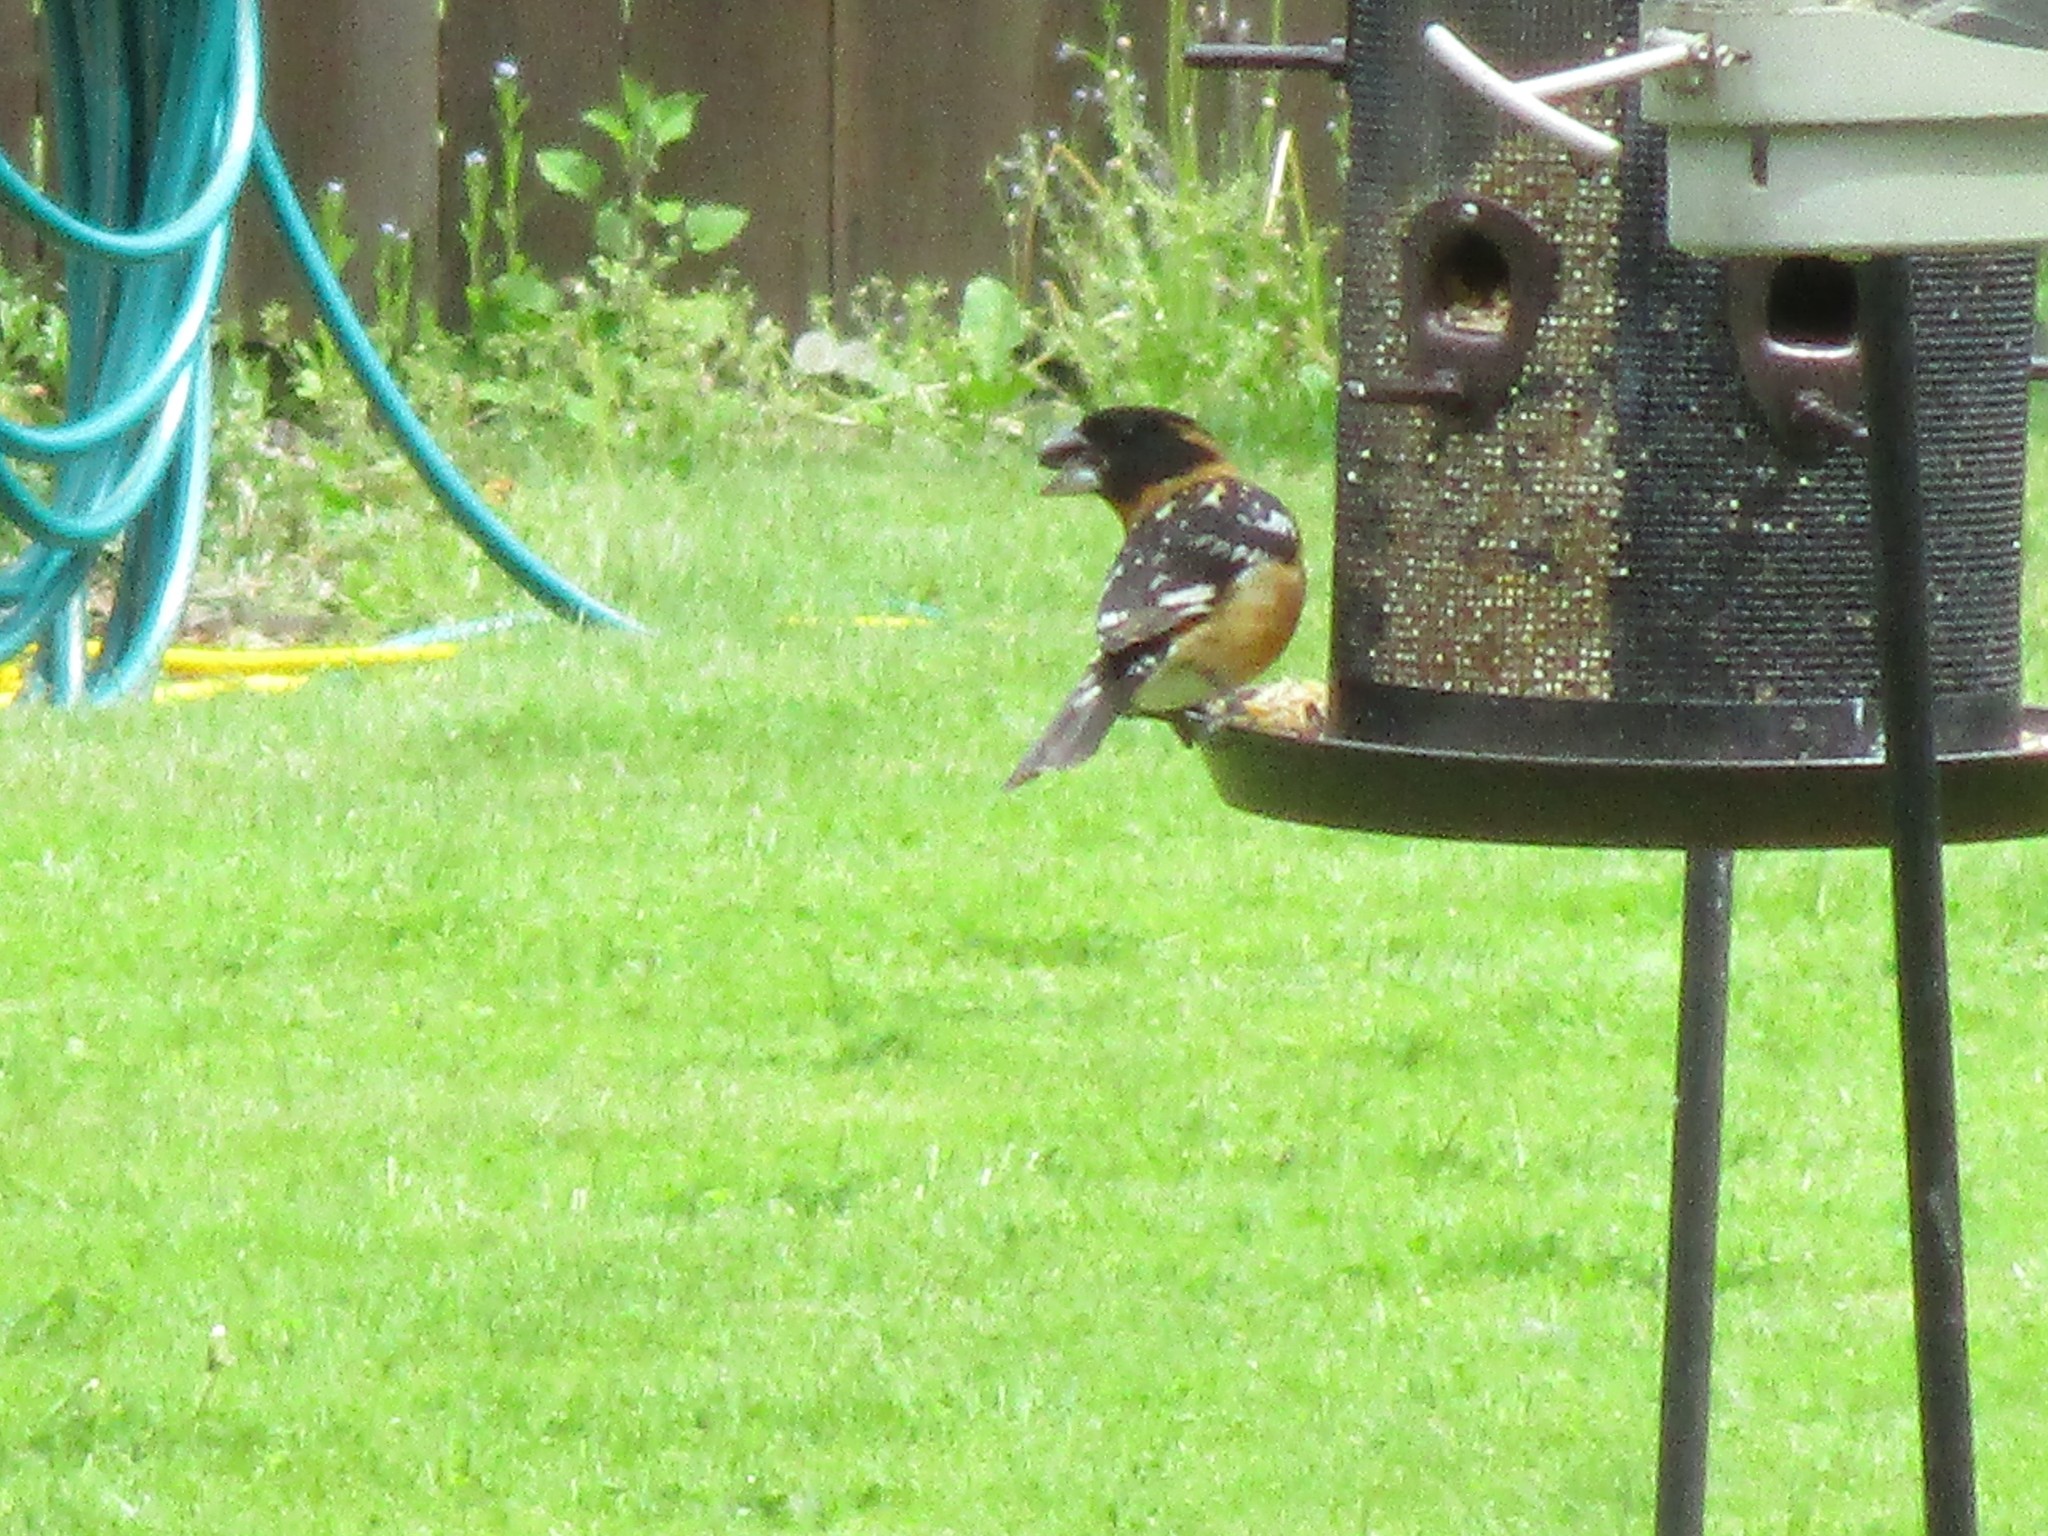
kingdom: Animalia
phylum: Chordata
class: Aves
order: Passeriformes
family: Cardinalidae
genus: Pheucticus
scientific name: Pheucticus melanocephalus
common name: Black-headed grosbeak
